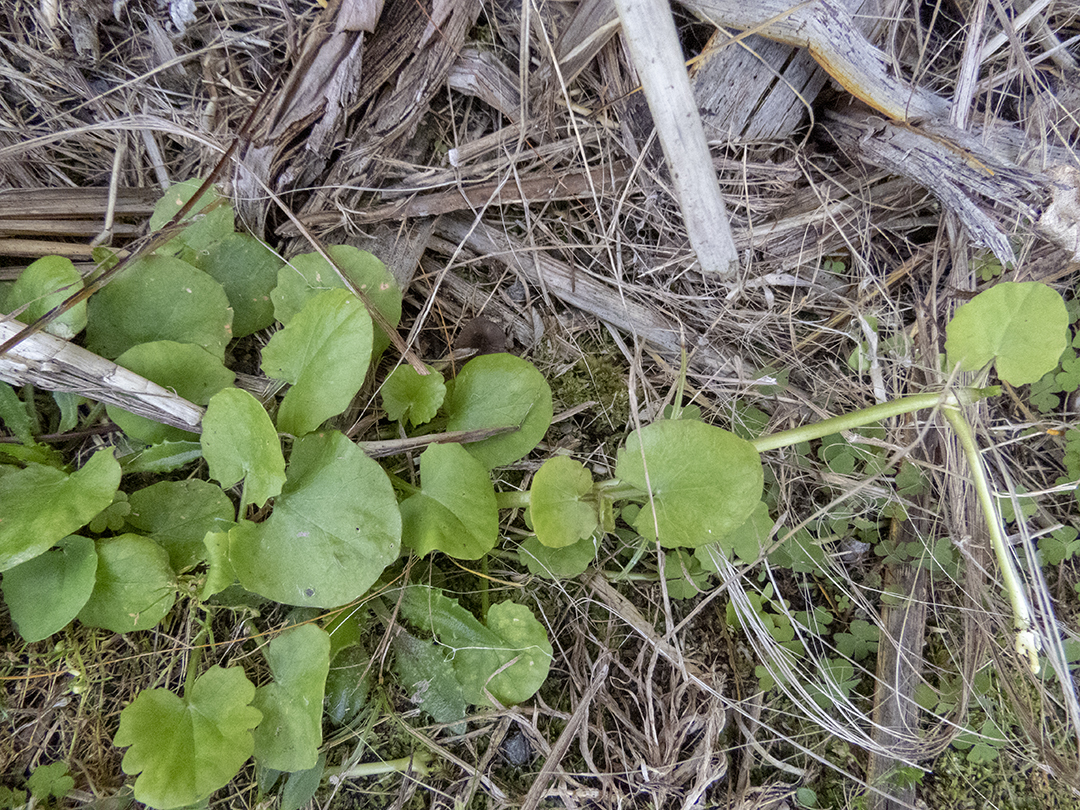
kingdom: Plantae
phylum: Tracheophyta
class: Magnoliopsida
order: Apiales
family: Apiaceae
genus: Centella
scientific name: Centella uniflora
